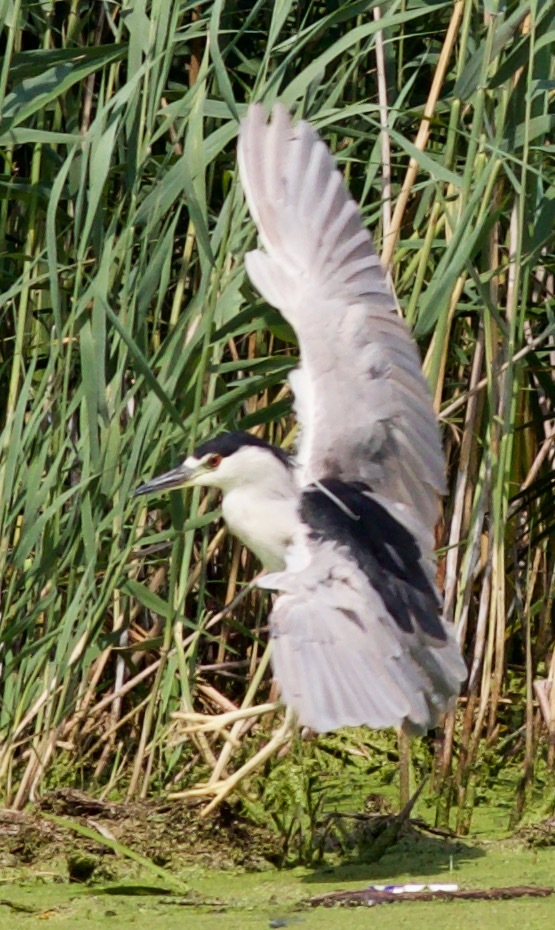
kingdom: Animalia
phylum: Chordata
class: Aves
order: Pelecaniformes
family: Ardeidae
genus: Nycticorax
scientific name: Nycticorax nycticorax
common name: Black-crowned night heron
